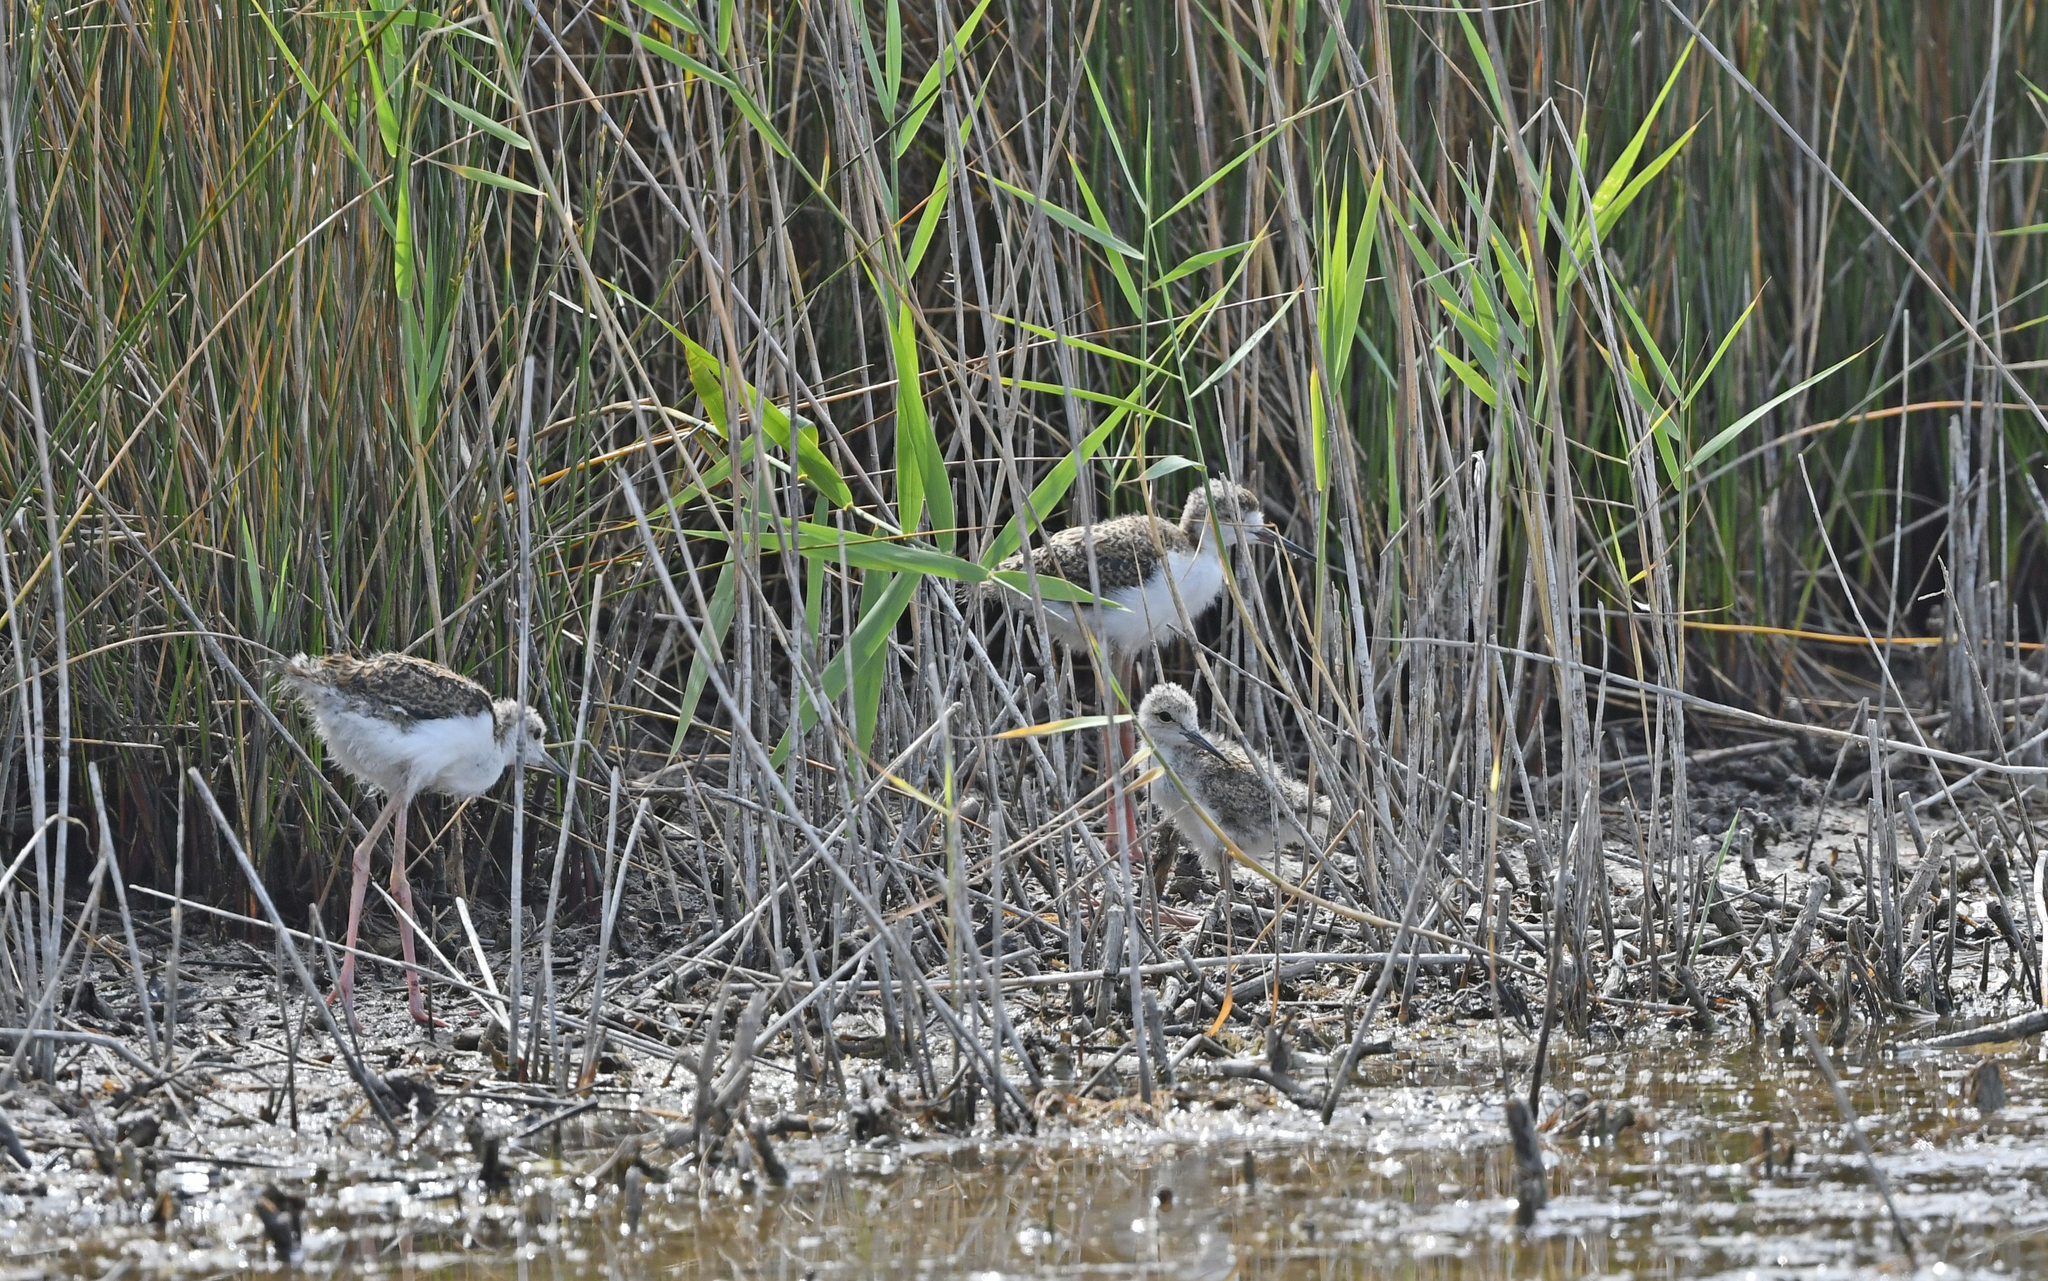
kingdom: Animalia
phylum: Chordata
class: Aves
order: Charadriiformes
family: Recurvirostridae
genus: Himantopus
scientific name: Himantopus himantopus
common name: Black-winged stilt
